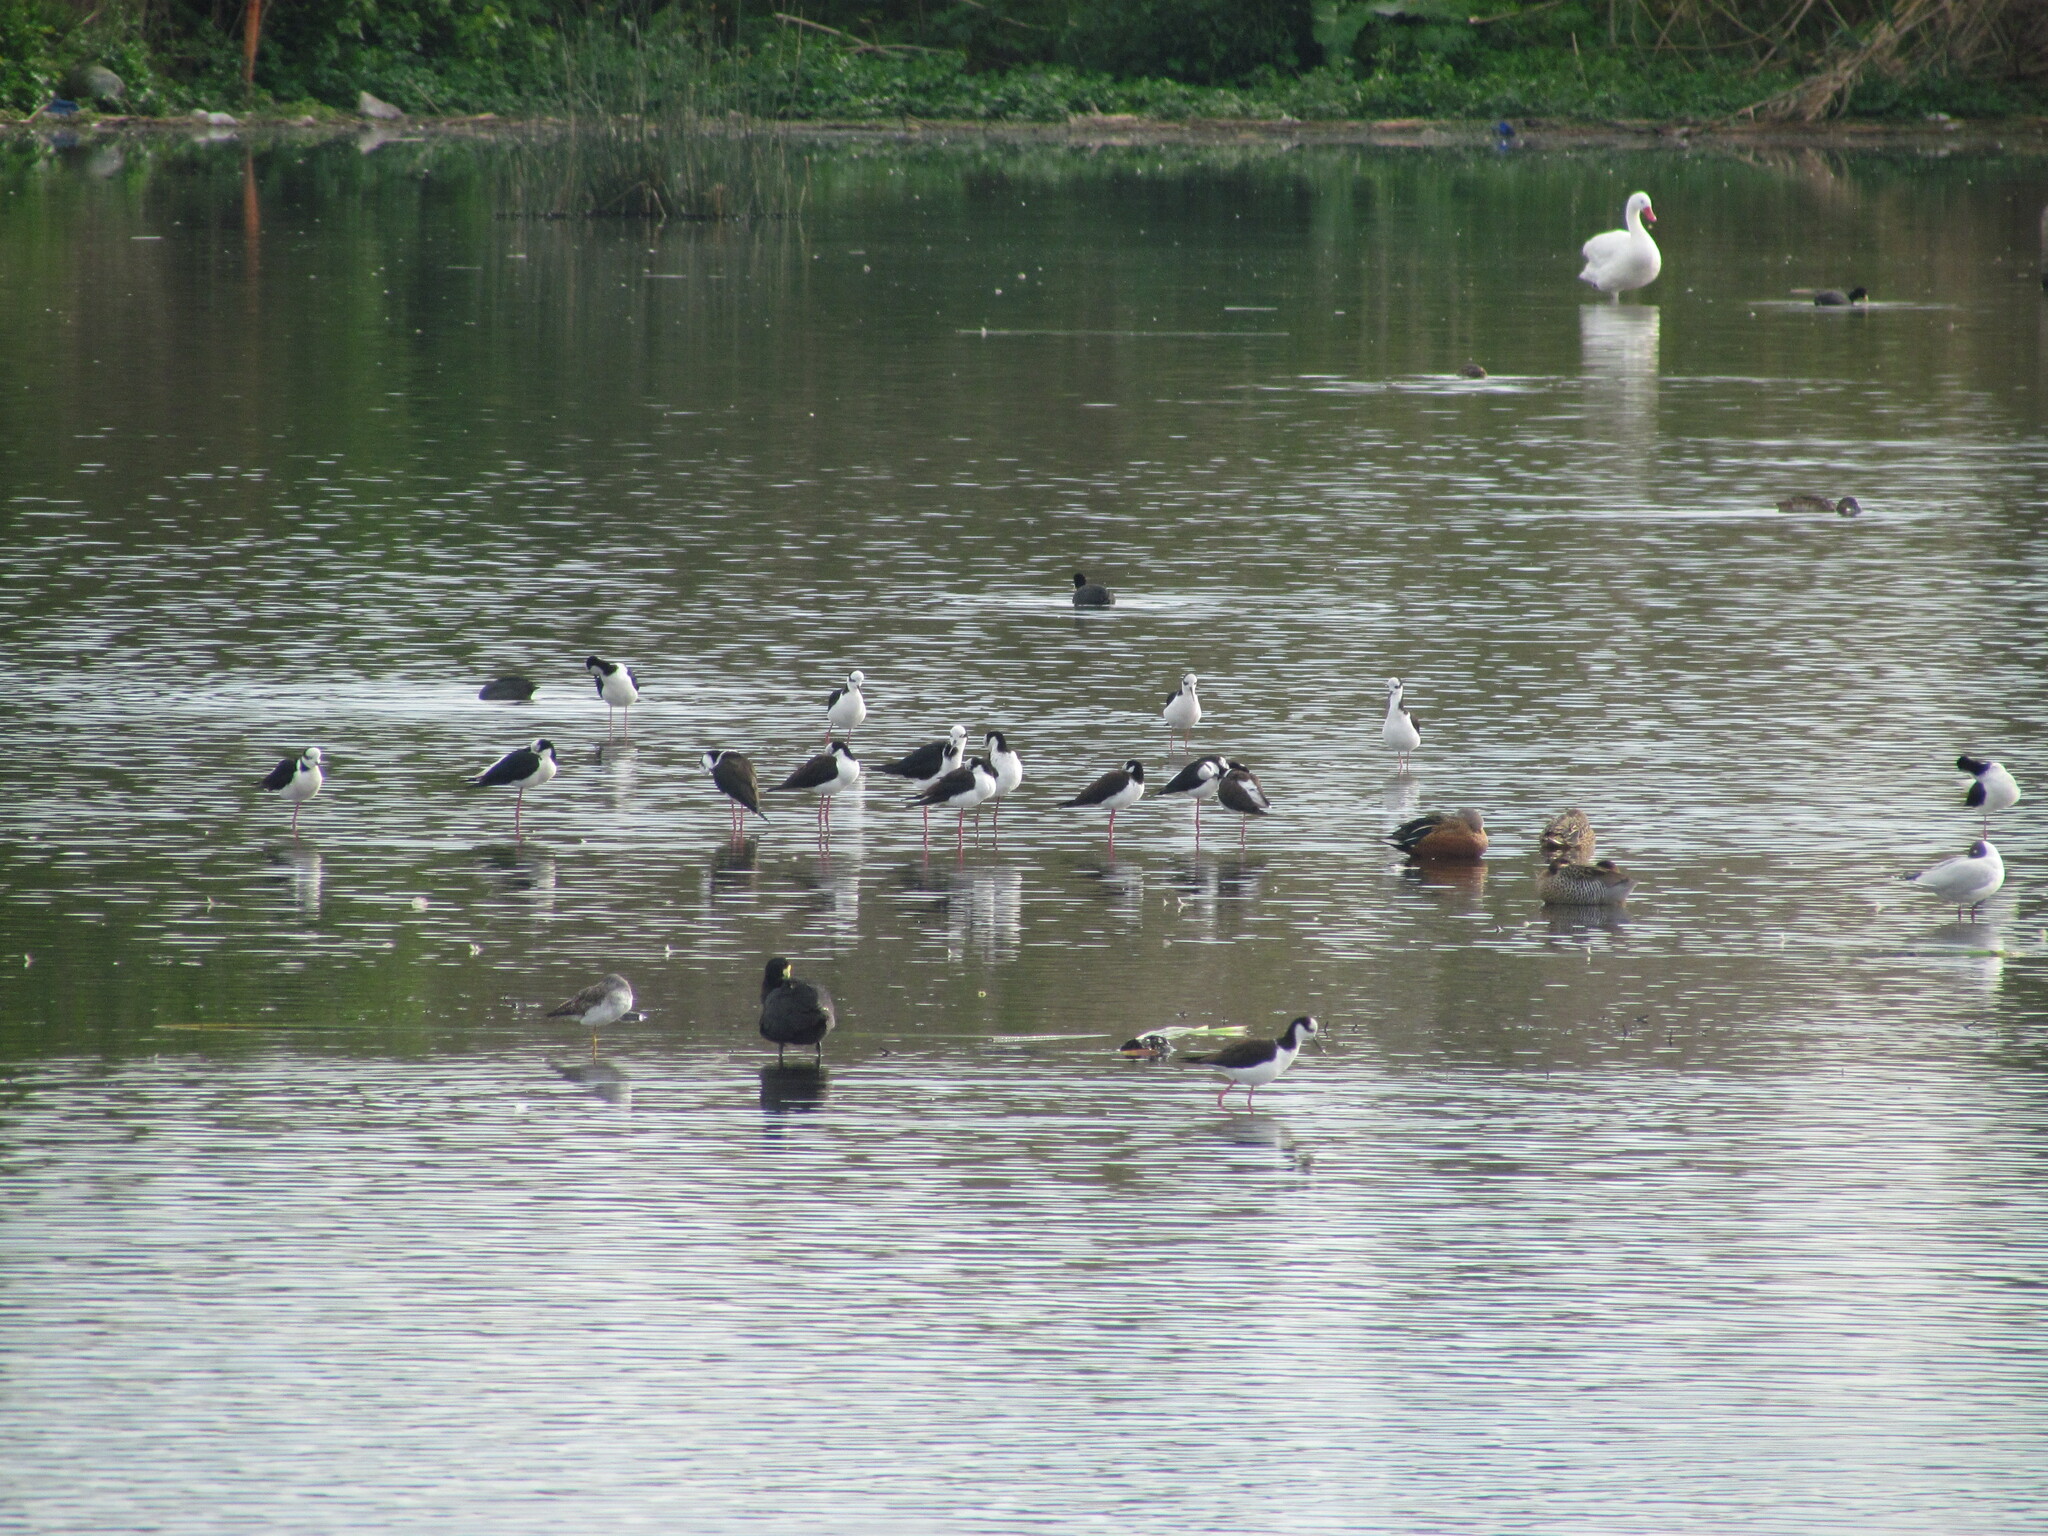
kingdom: Animalia
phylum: Chordata
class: Aves
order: Charadriiformes
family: Recurvirostridae
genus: Himantopus
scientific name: Himantopus mexicanus
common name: Black-necked stilt
